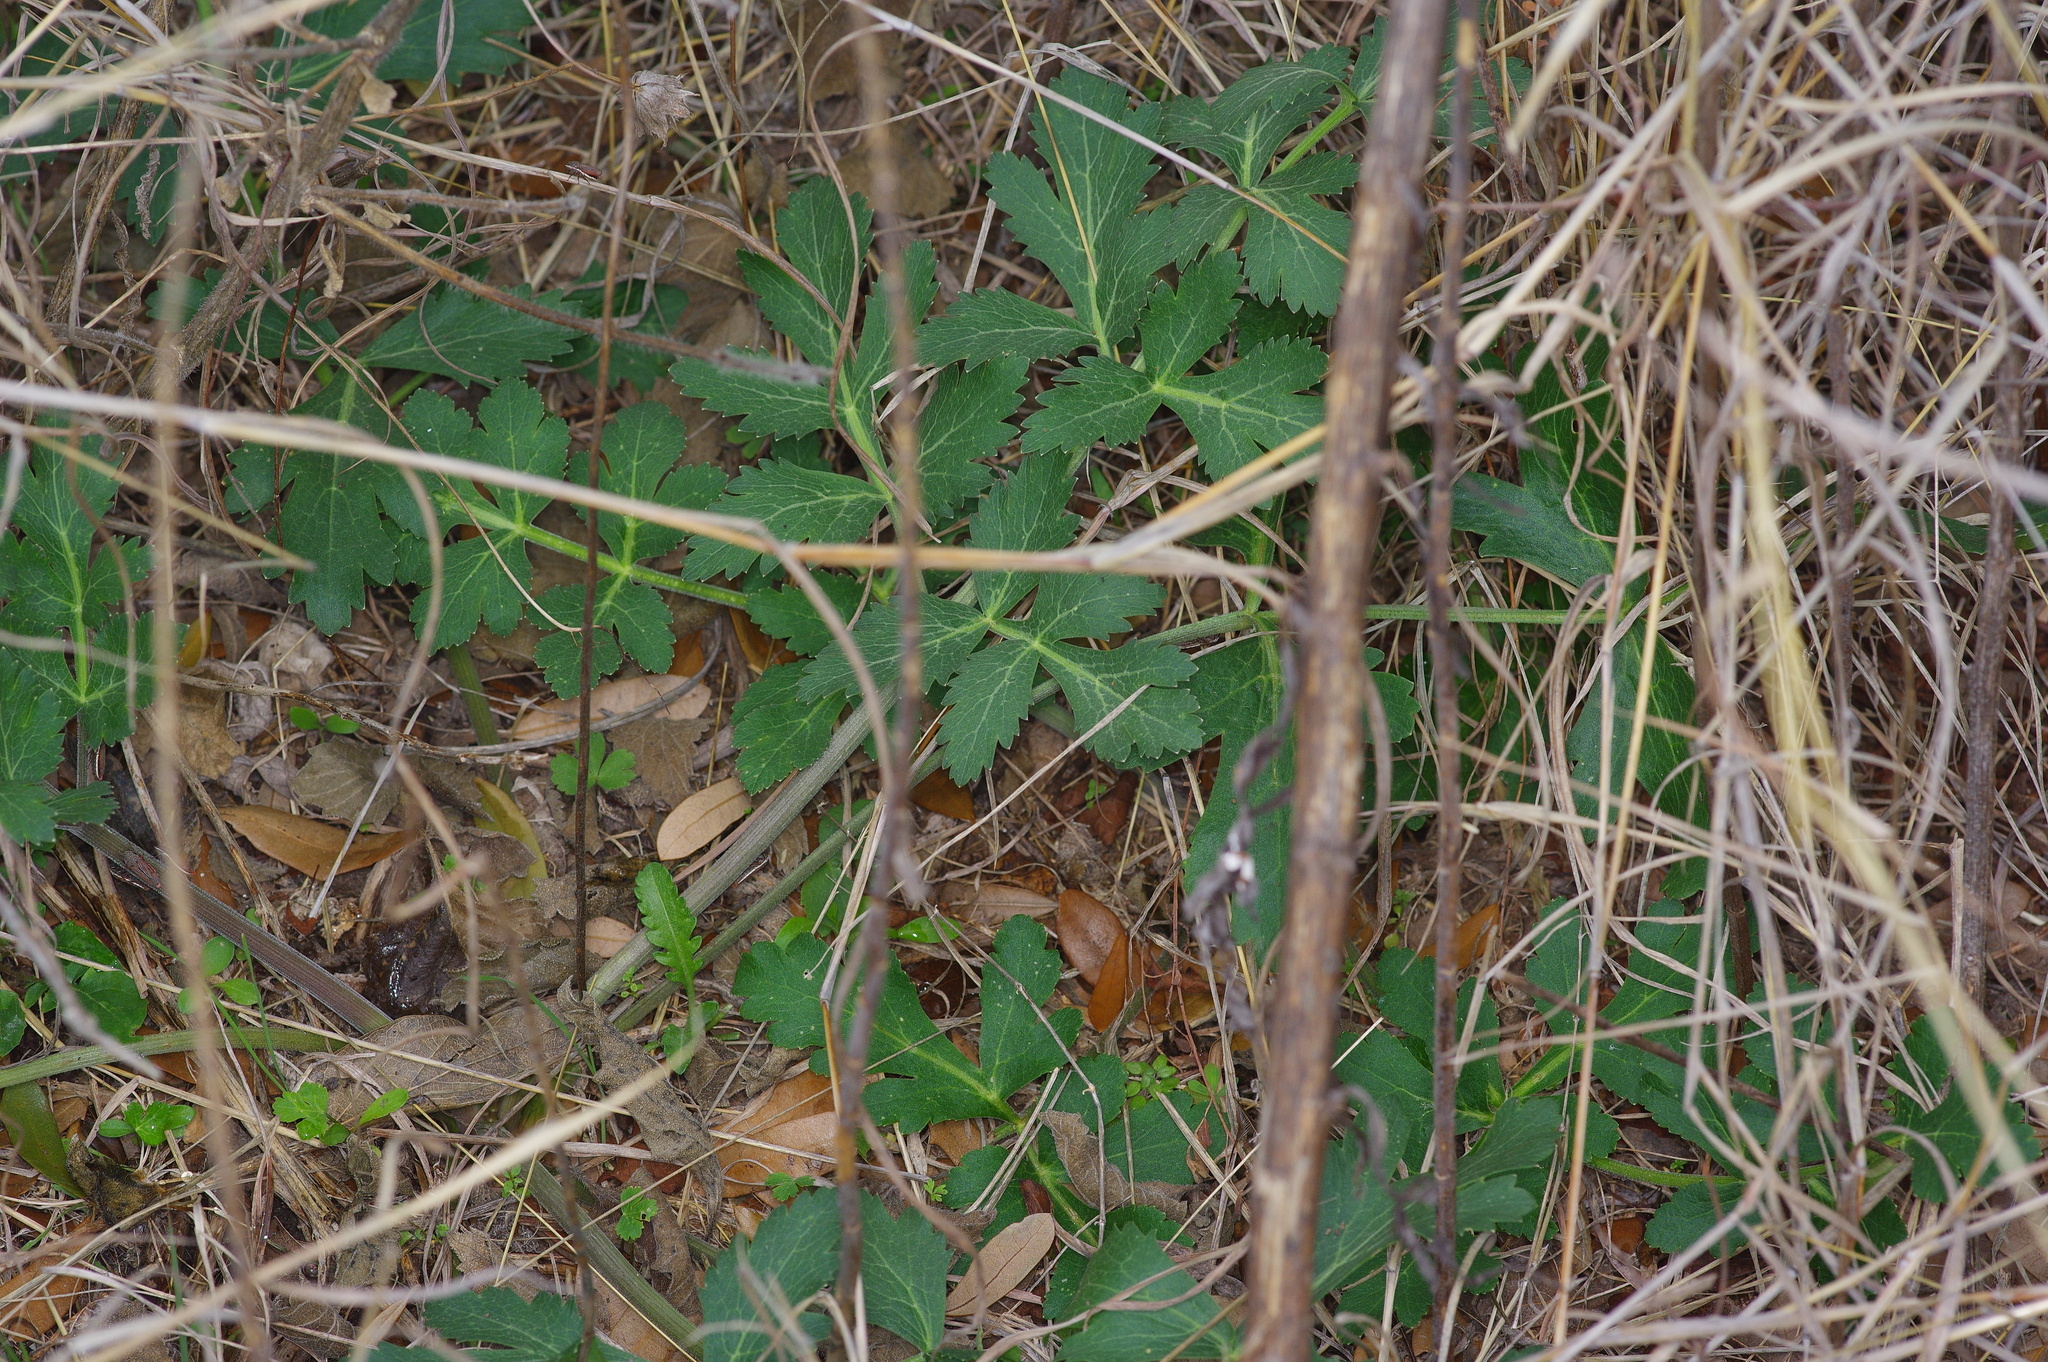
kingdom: Plantae
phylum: Tracheophyta
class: Magnoliopsida
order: Apiales
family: Apiaceae
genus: Polytaenia
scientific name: Polytaenia texana
